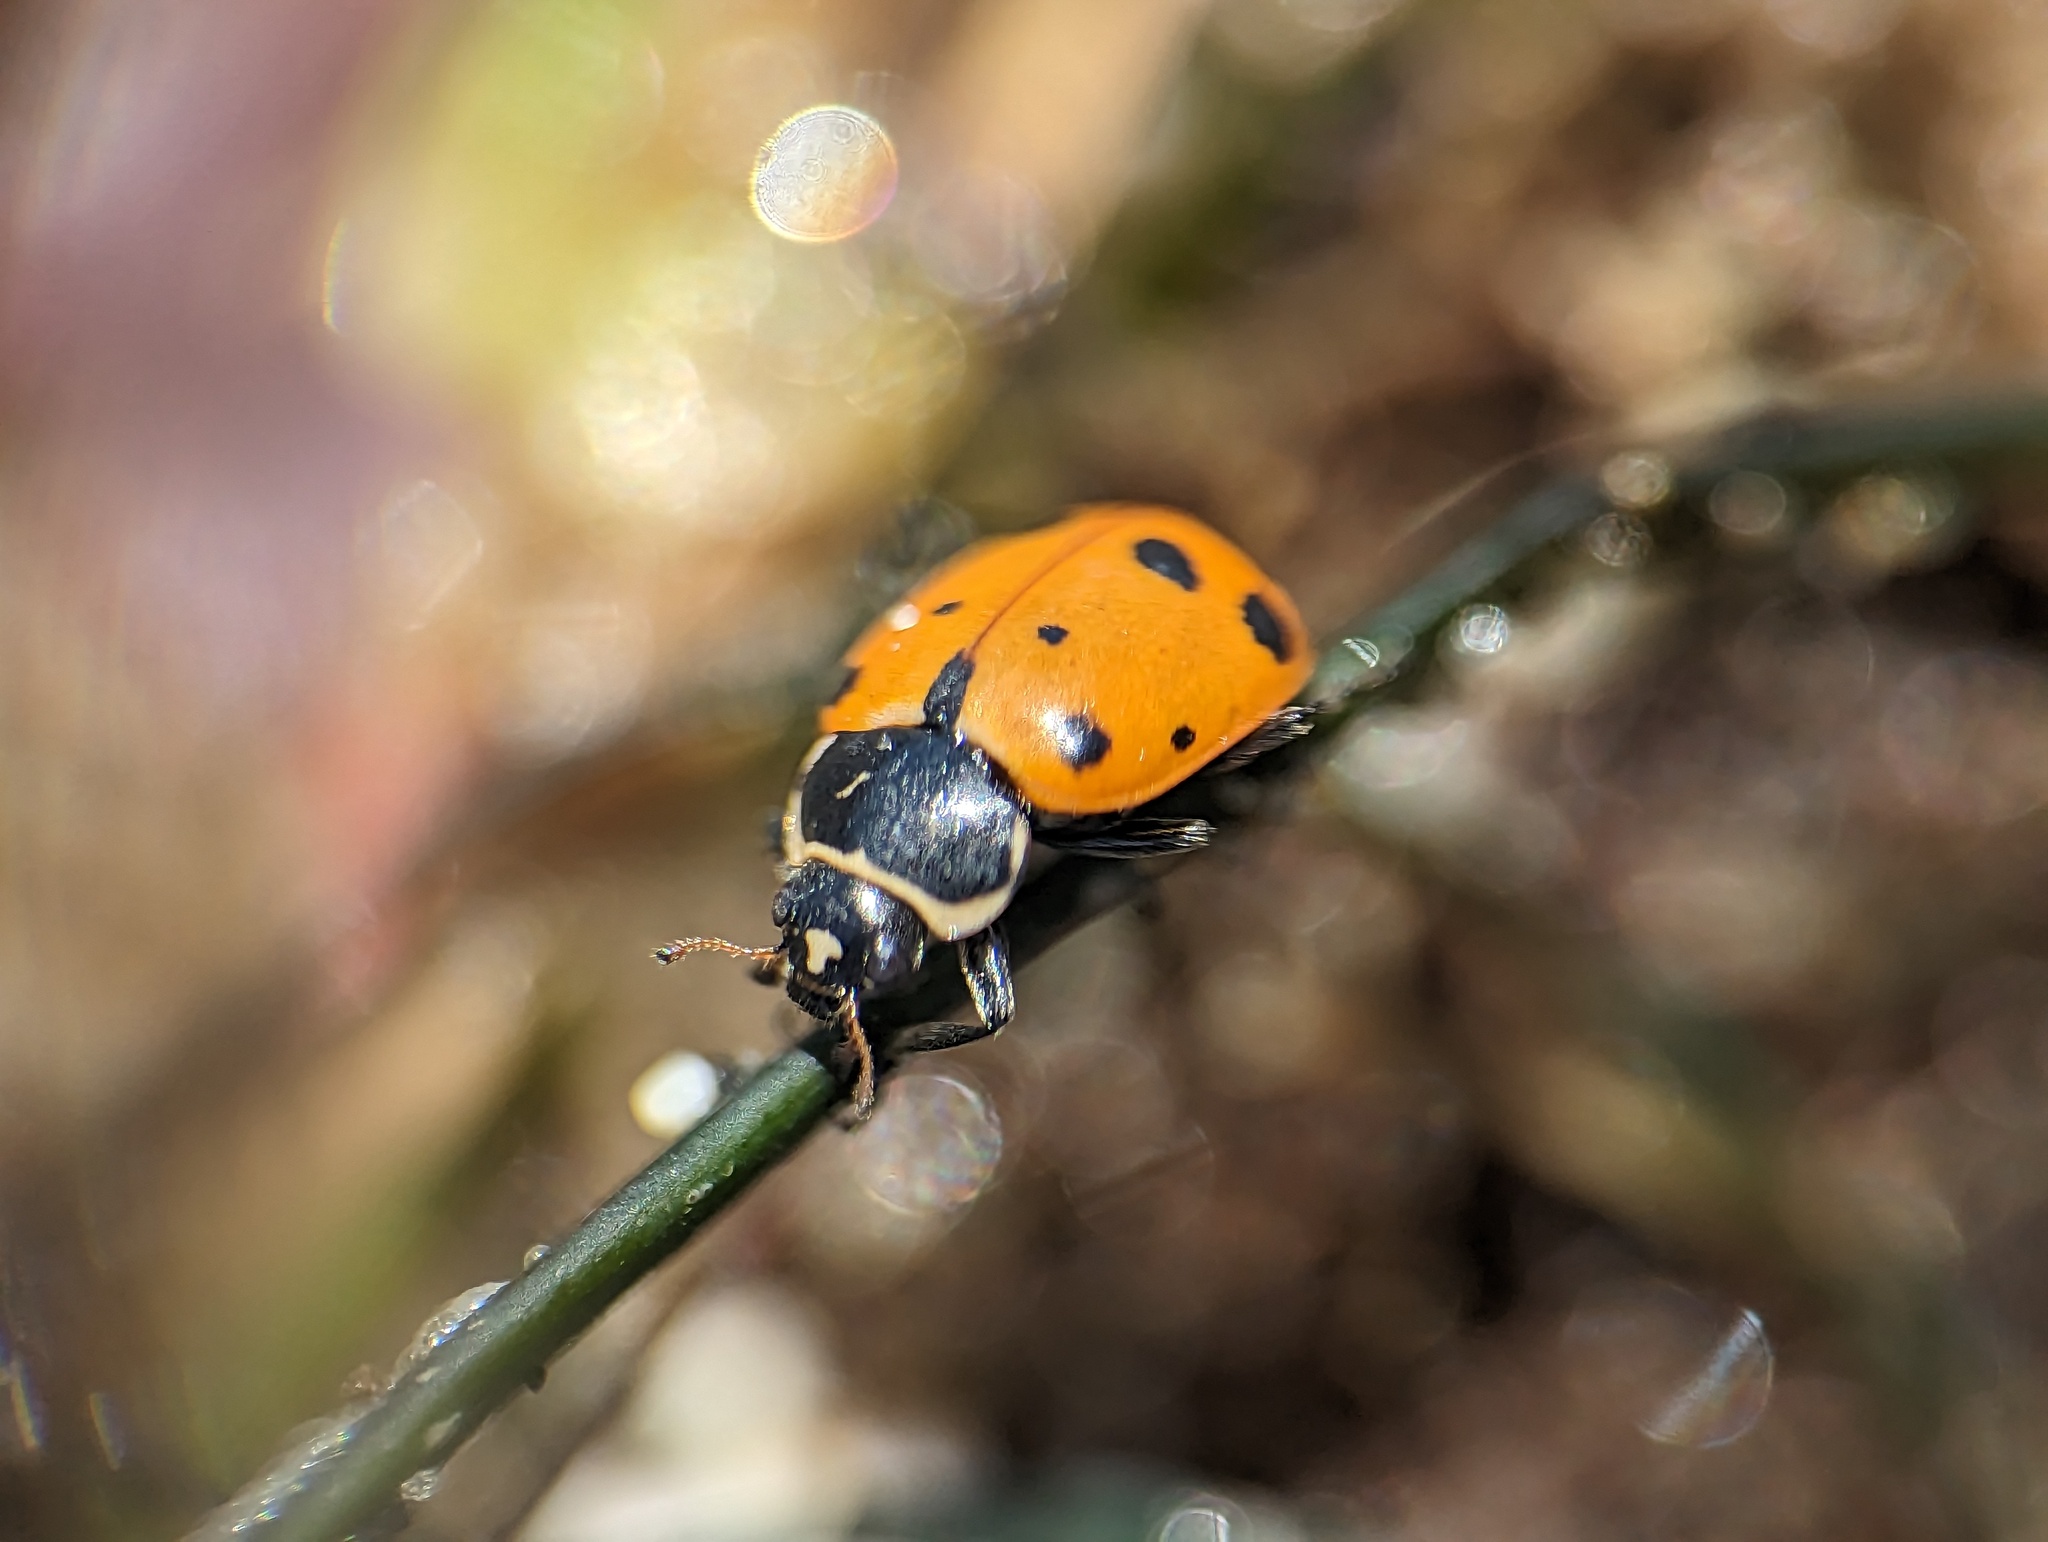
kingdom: Animalia
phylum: Arthropoda
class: Insecta
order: Coleoptera
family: Coccinellidae
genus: Hippodamia
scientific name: Hippodamia convergens
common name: Convergent lady beetle
